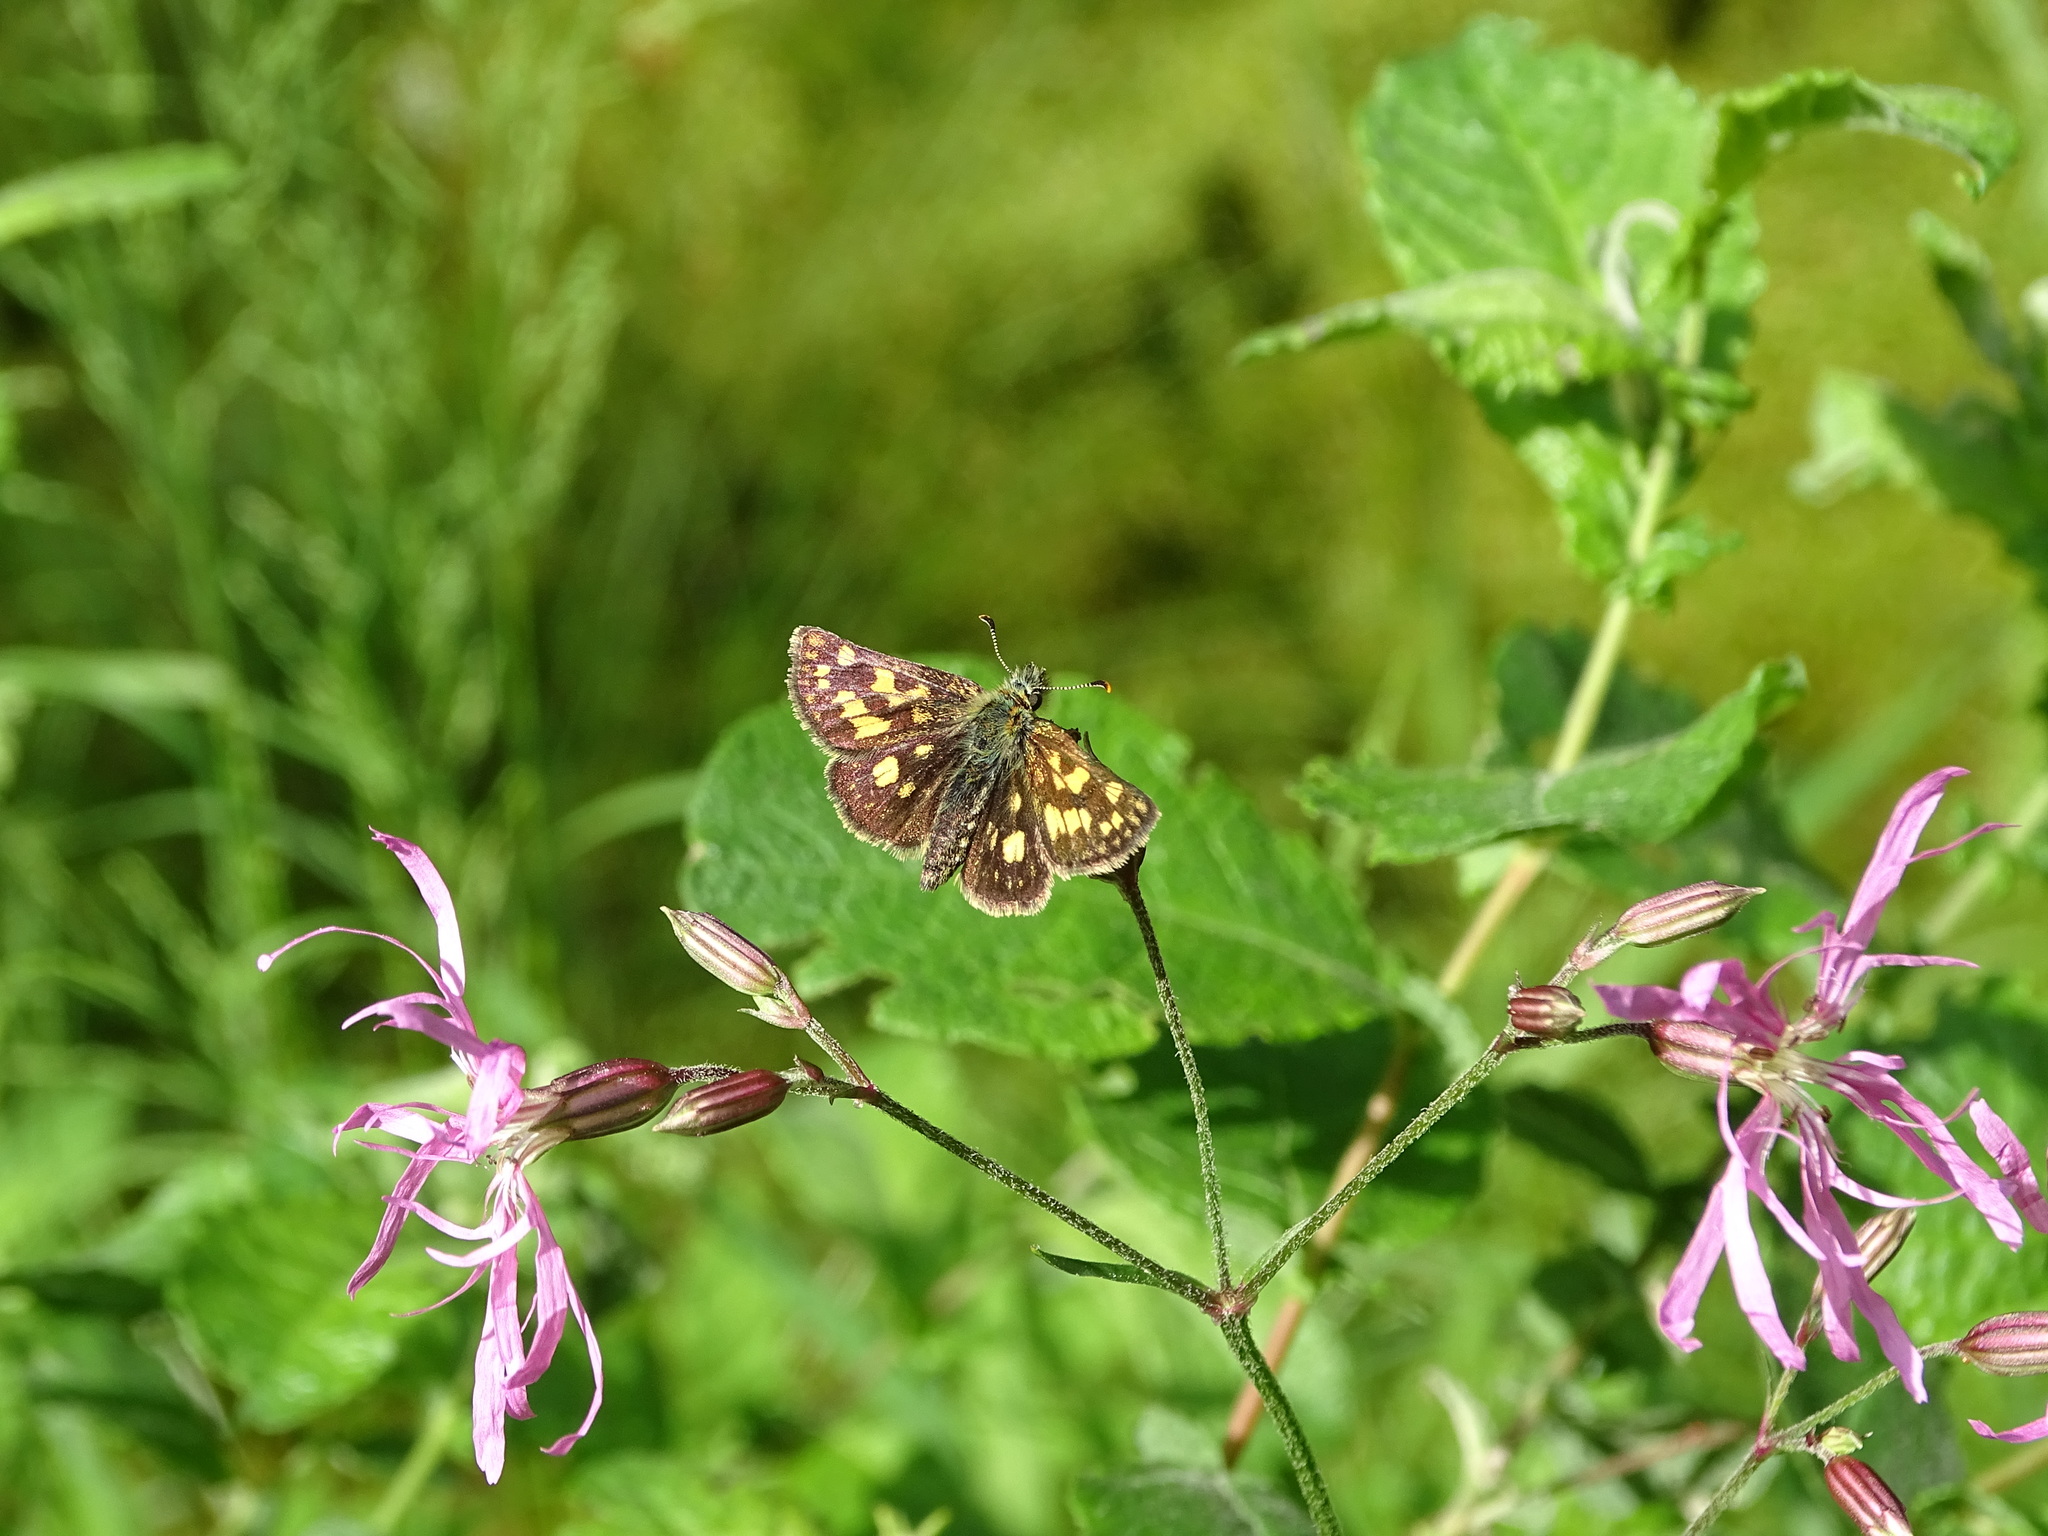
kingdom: Animalia
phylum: Arthropoda
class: Insecta
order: Lepidoptera
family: Hesperiidae
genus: Carterocephalus
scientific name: Carterocephalus palaemon
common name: Chequered skipper
